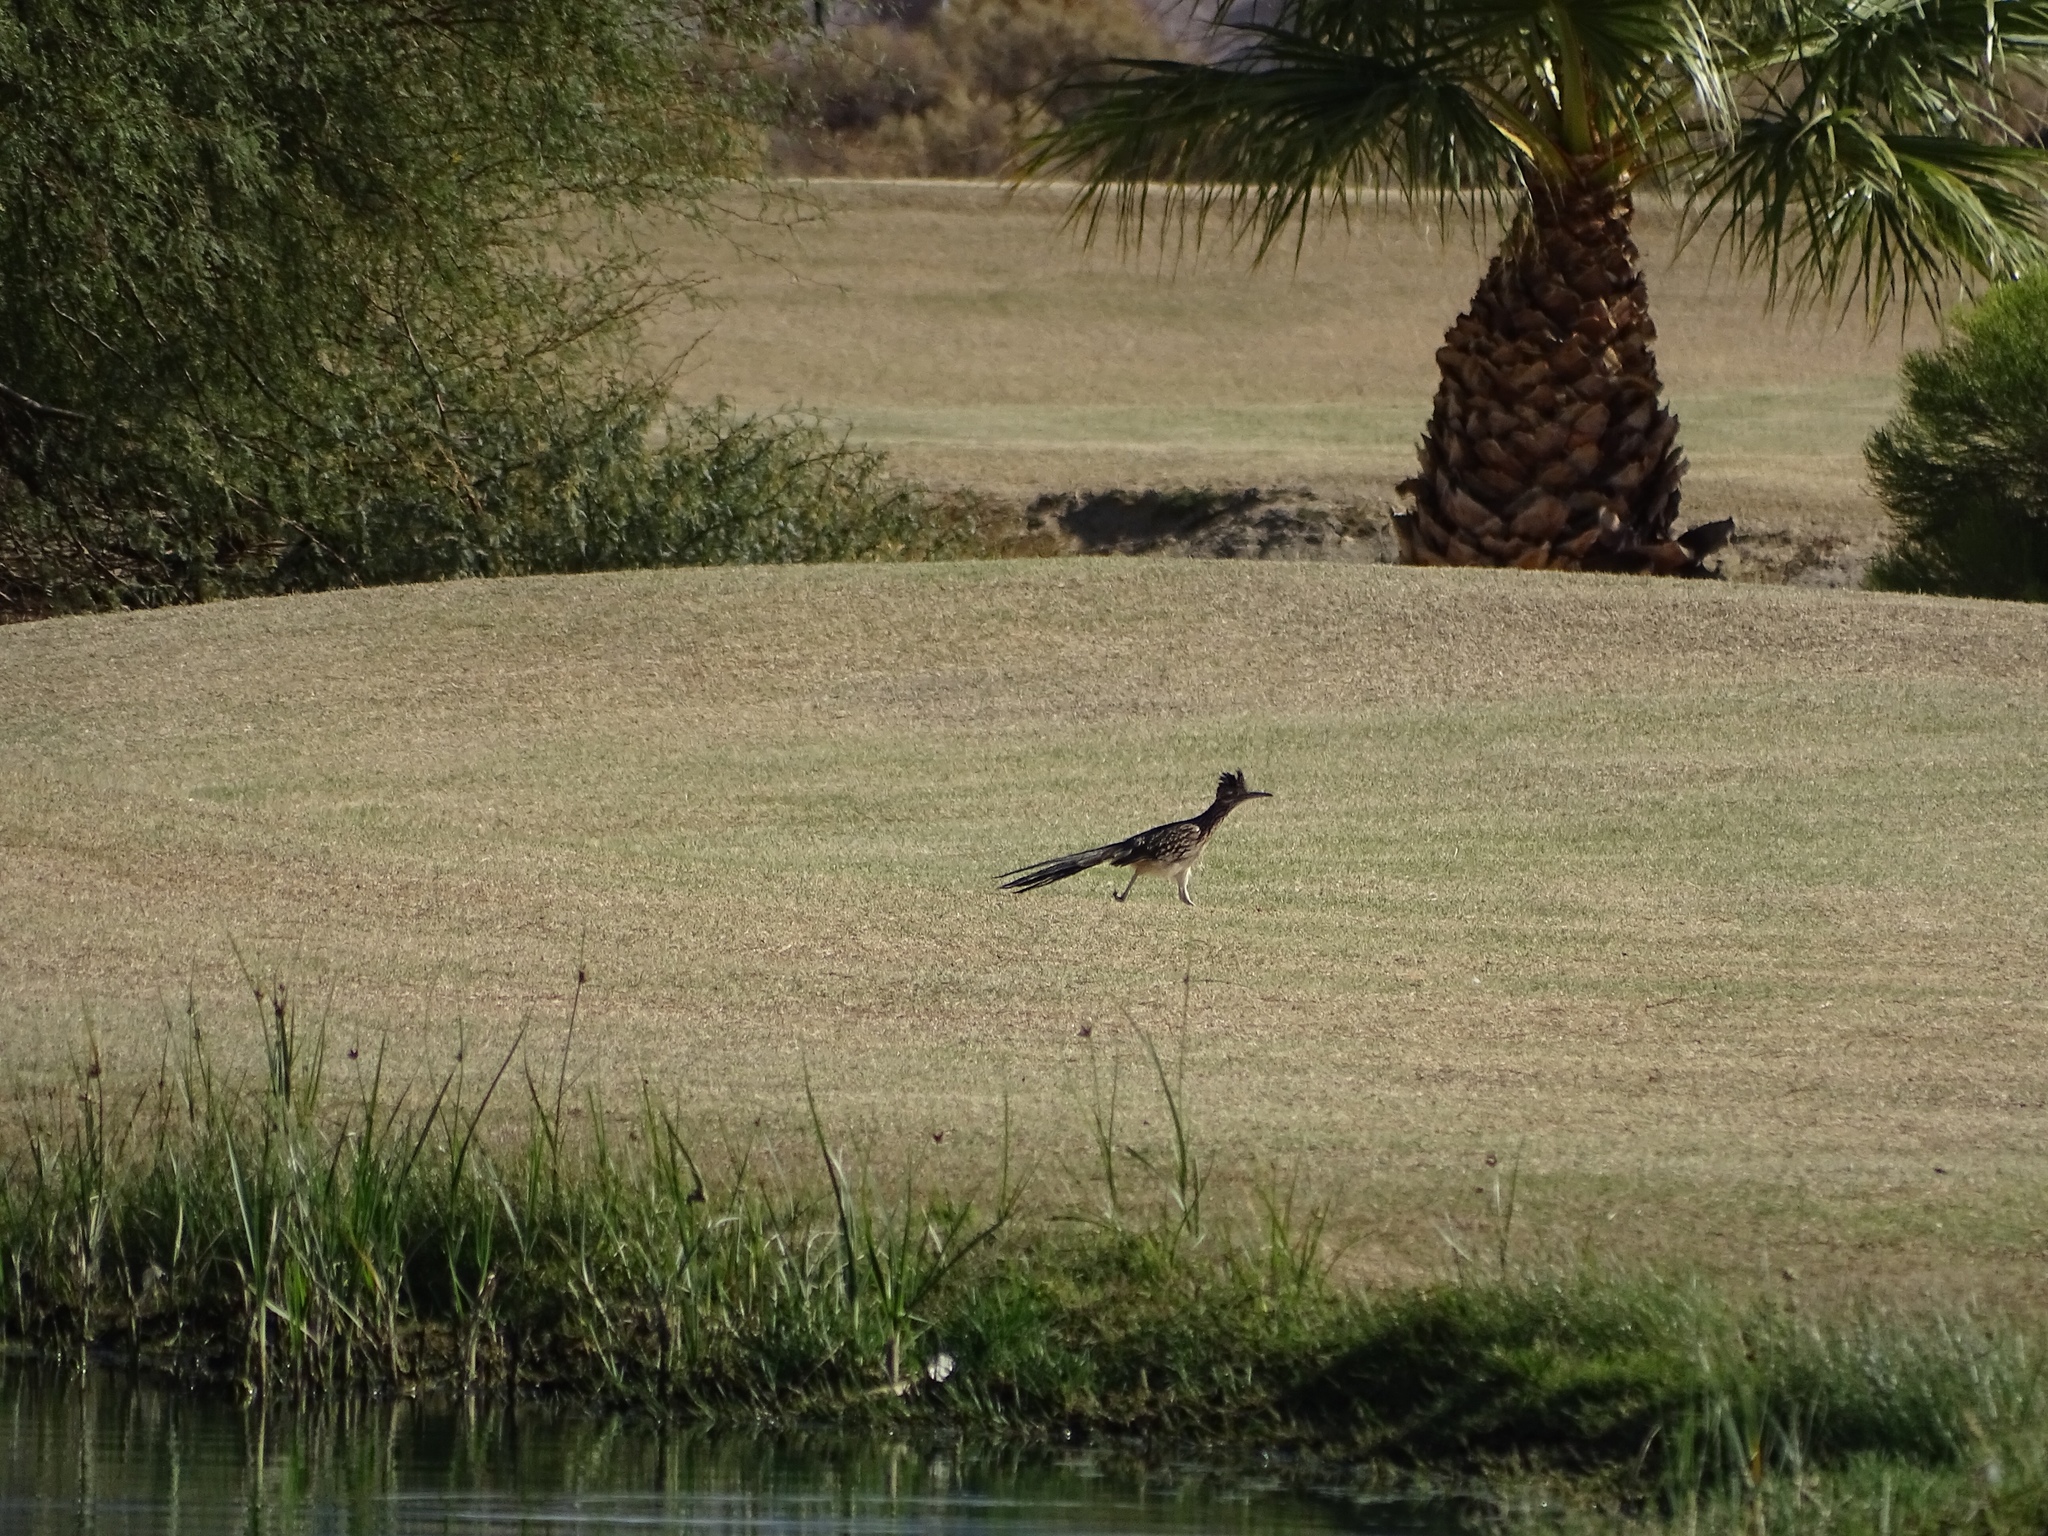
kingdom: Animalia
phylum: Chordata
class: Aves
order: Cuculiformes
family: Cuculidae
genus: Geococcyx
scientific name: Geococcyx californianus
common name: Greater roadrunner
